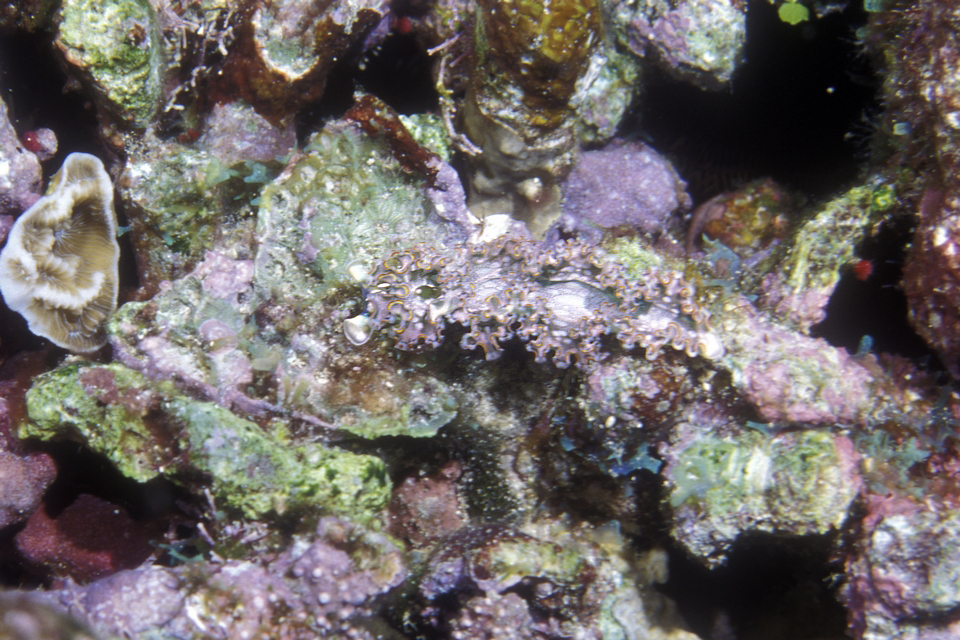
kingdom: Animalia
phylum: Mollusca
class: Gastropoda
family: Plakobranchidae
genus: Elysia
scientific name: Elysia crispata
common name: Lettuce slug
